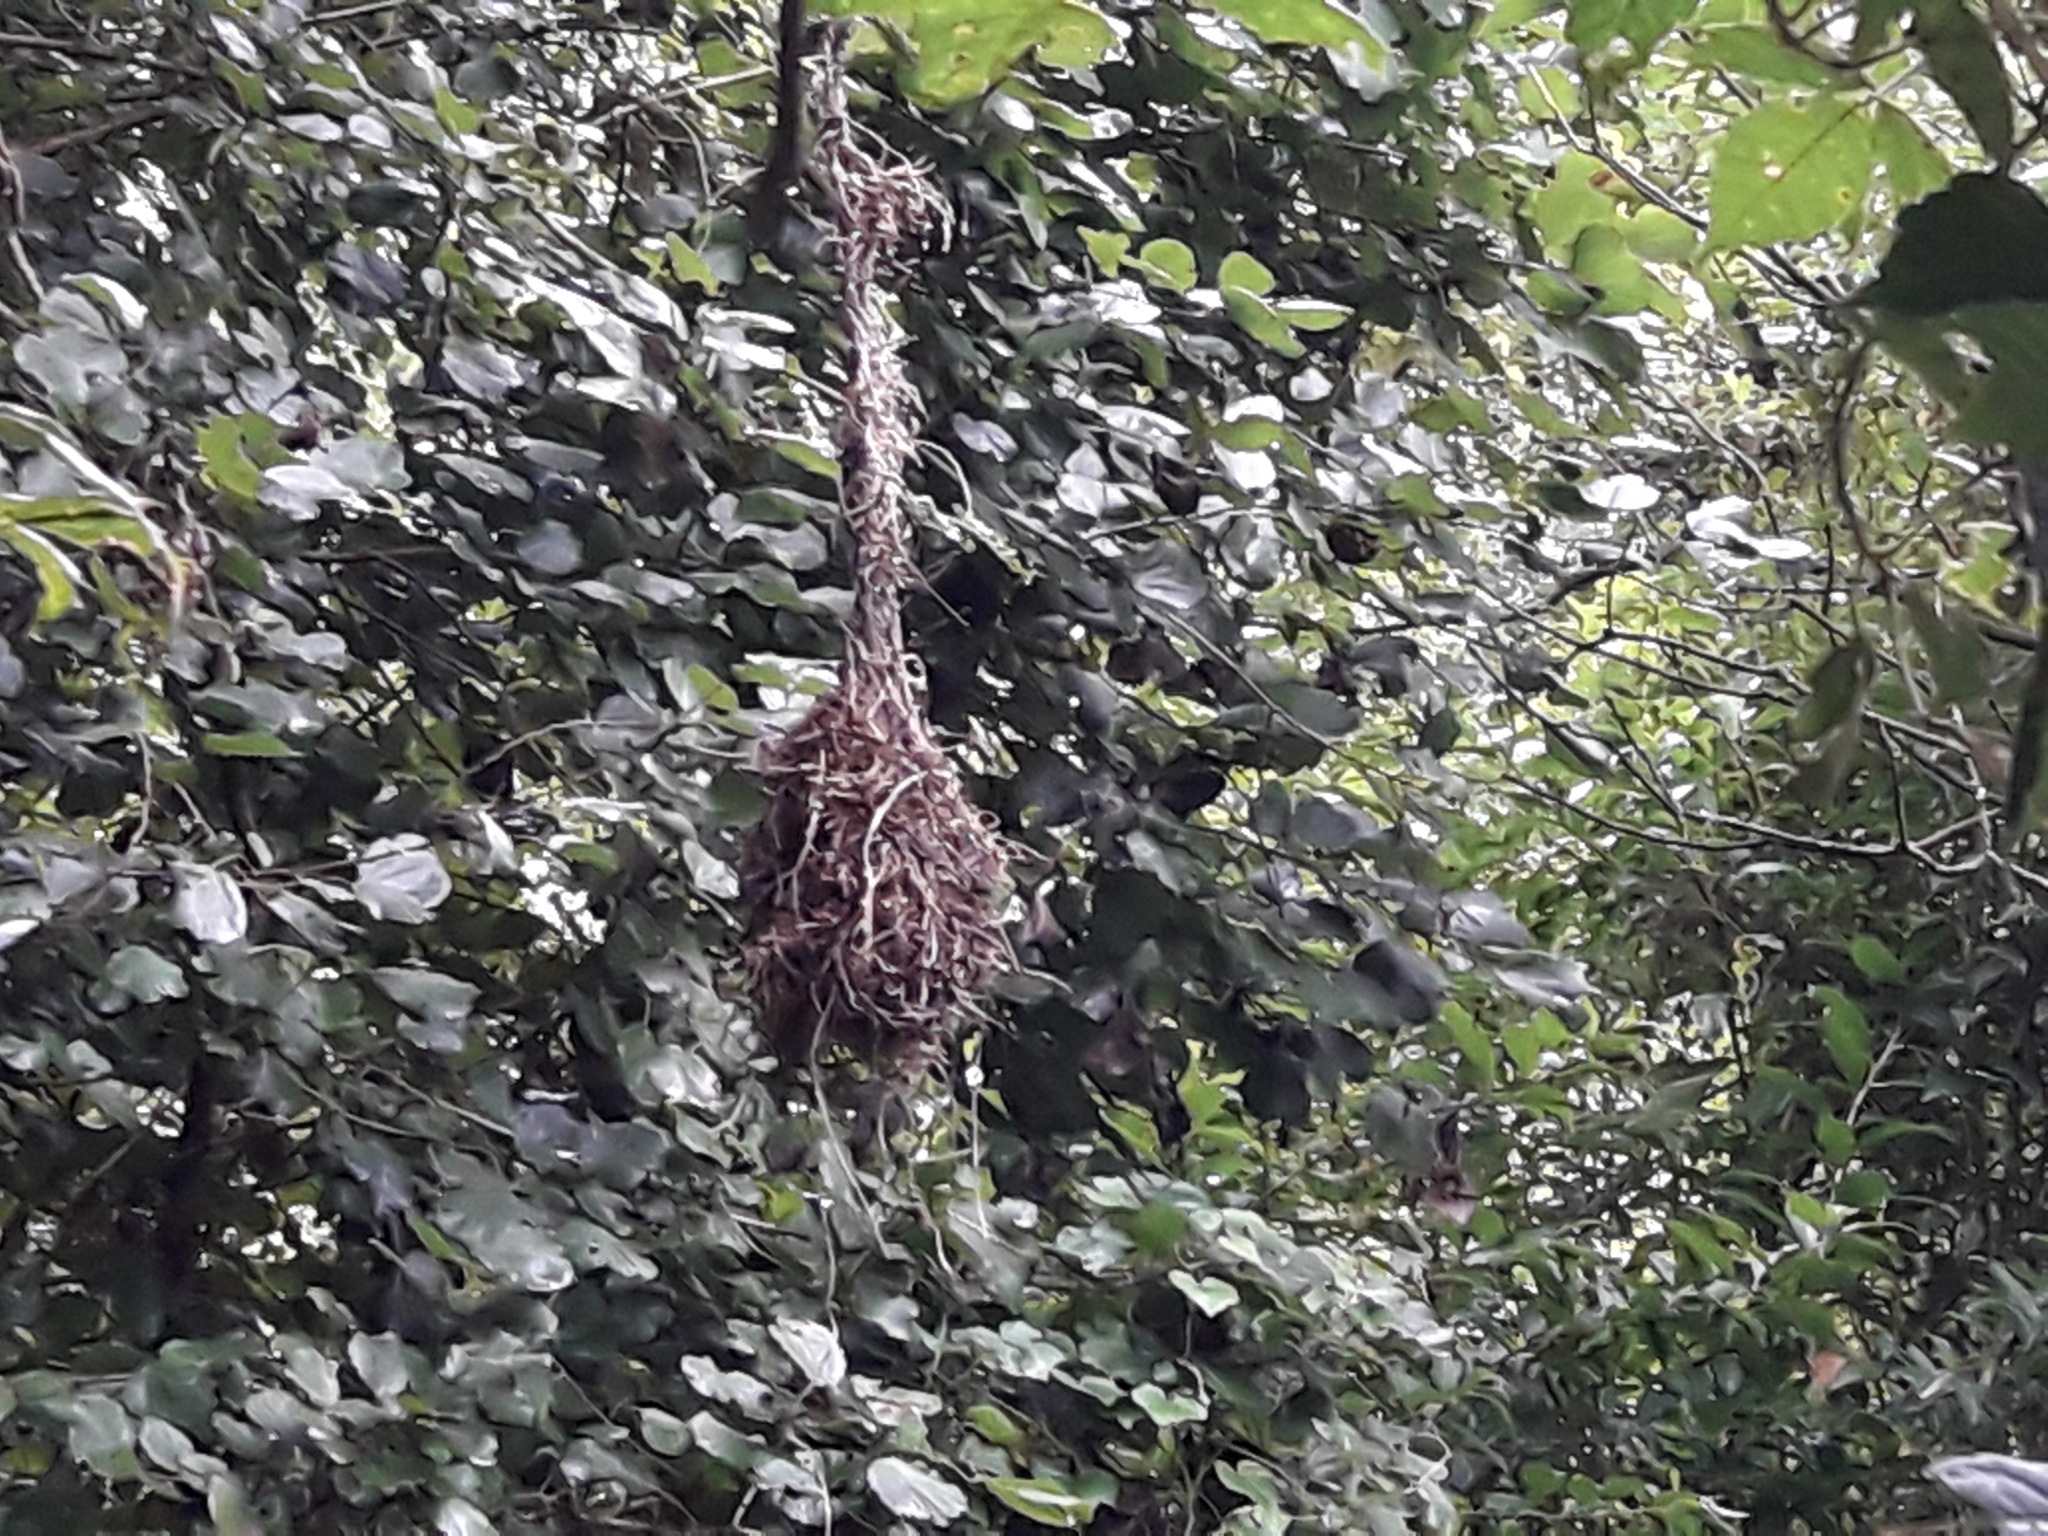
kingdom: Animalia
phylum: Chordata
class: Aves
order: Passeriformes
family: Ploceidae
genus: Ploceus
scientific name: Ploceus bicolor
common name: Dark-backed weaver
